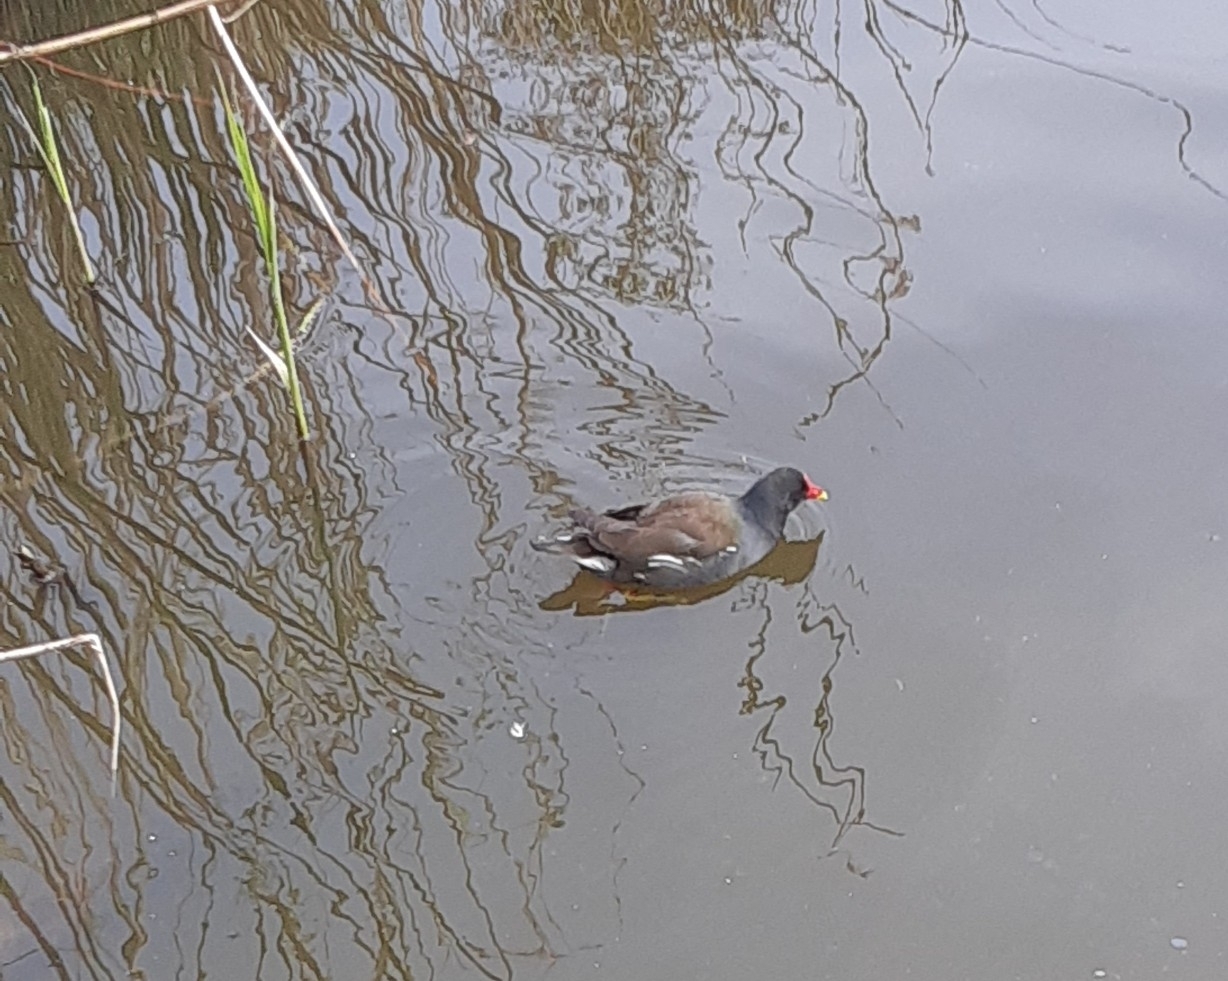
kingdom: Animalia
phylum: Chordata
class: Aves
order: Gruiformes
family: Rallidae
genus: Gallinula
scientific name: Gallinula chloropus
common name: Common moorhen
